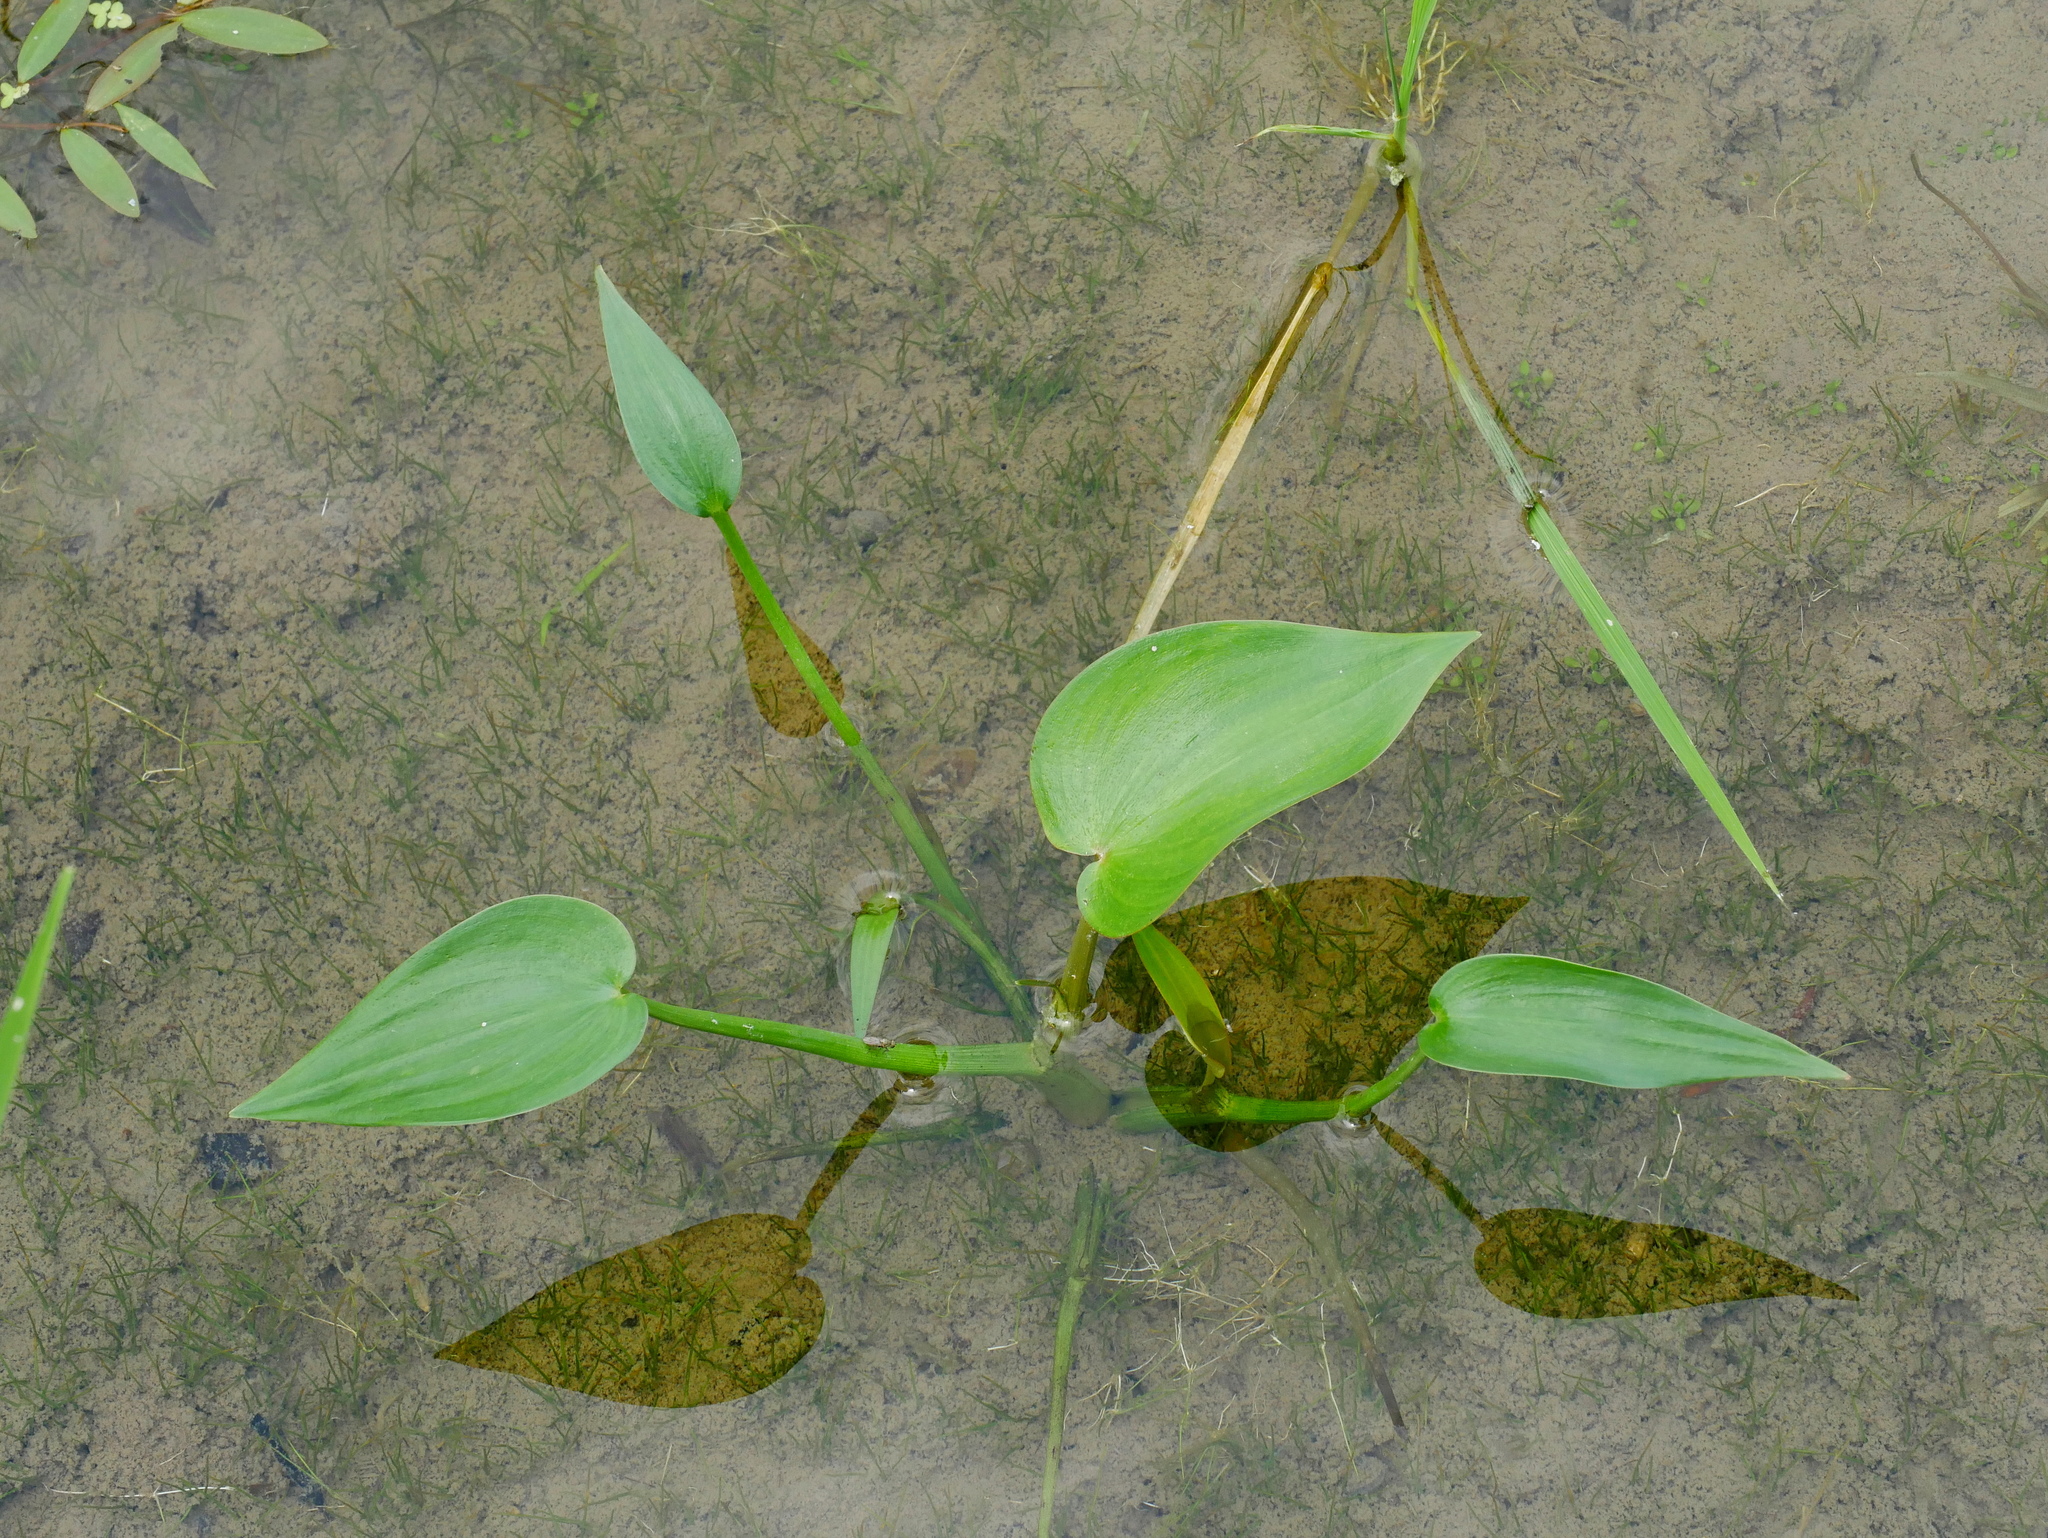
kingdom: Plantae
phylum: Tracheophyta
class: Liliopsida
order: Commelinales
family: Pontederiaceae
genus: Pontederia
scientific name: Pontederia vaginalis
